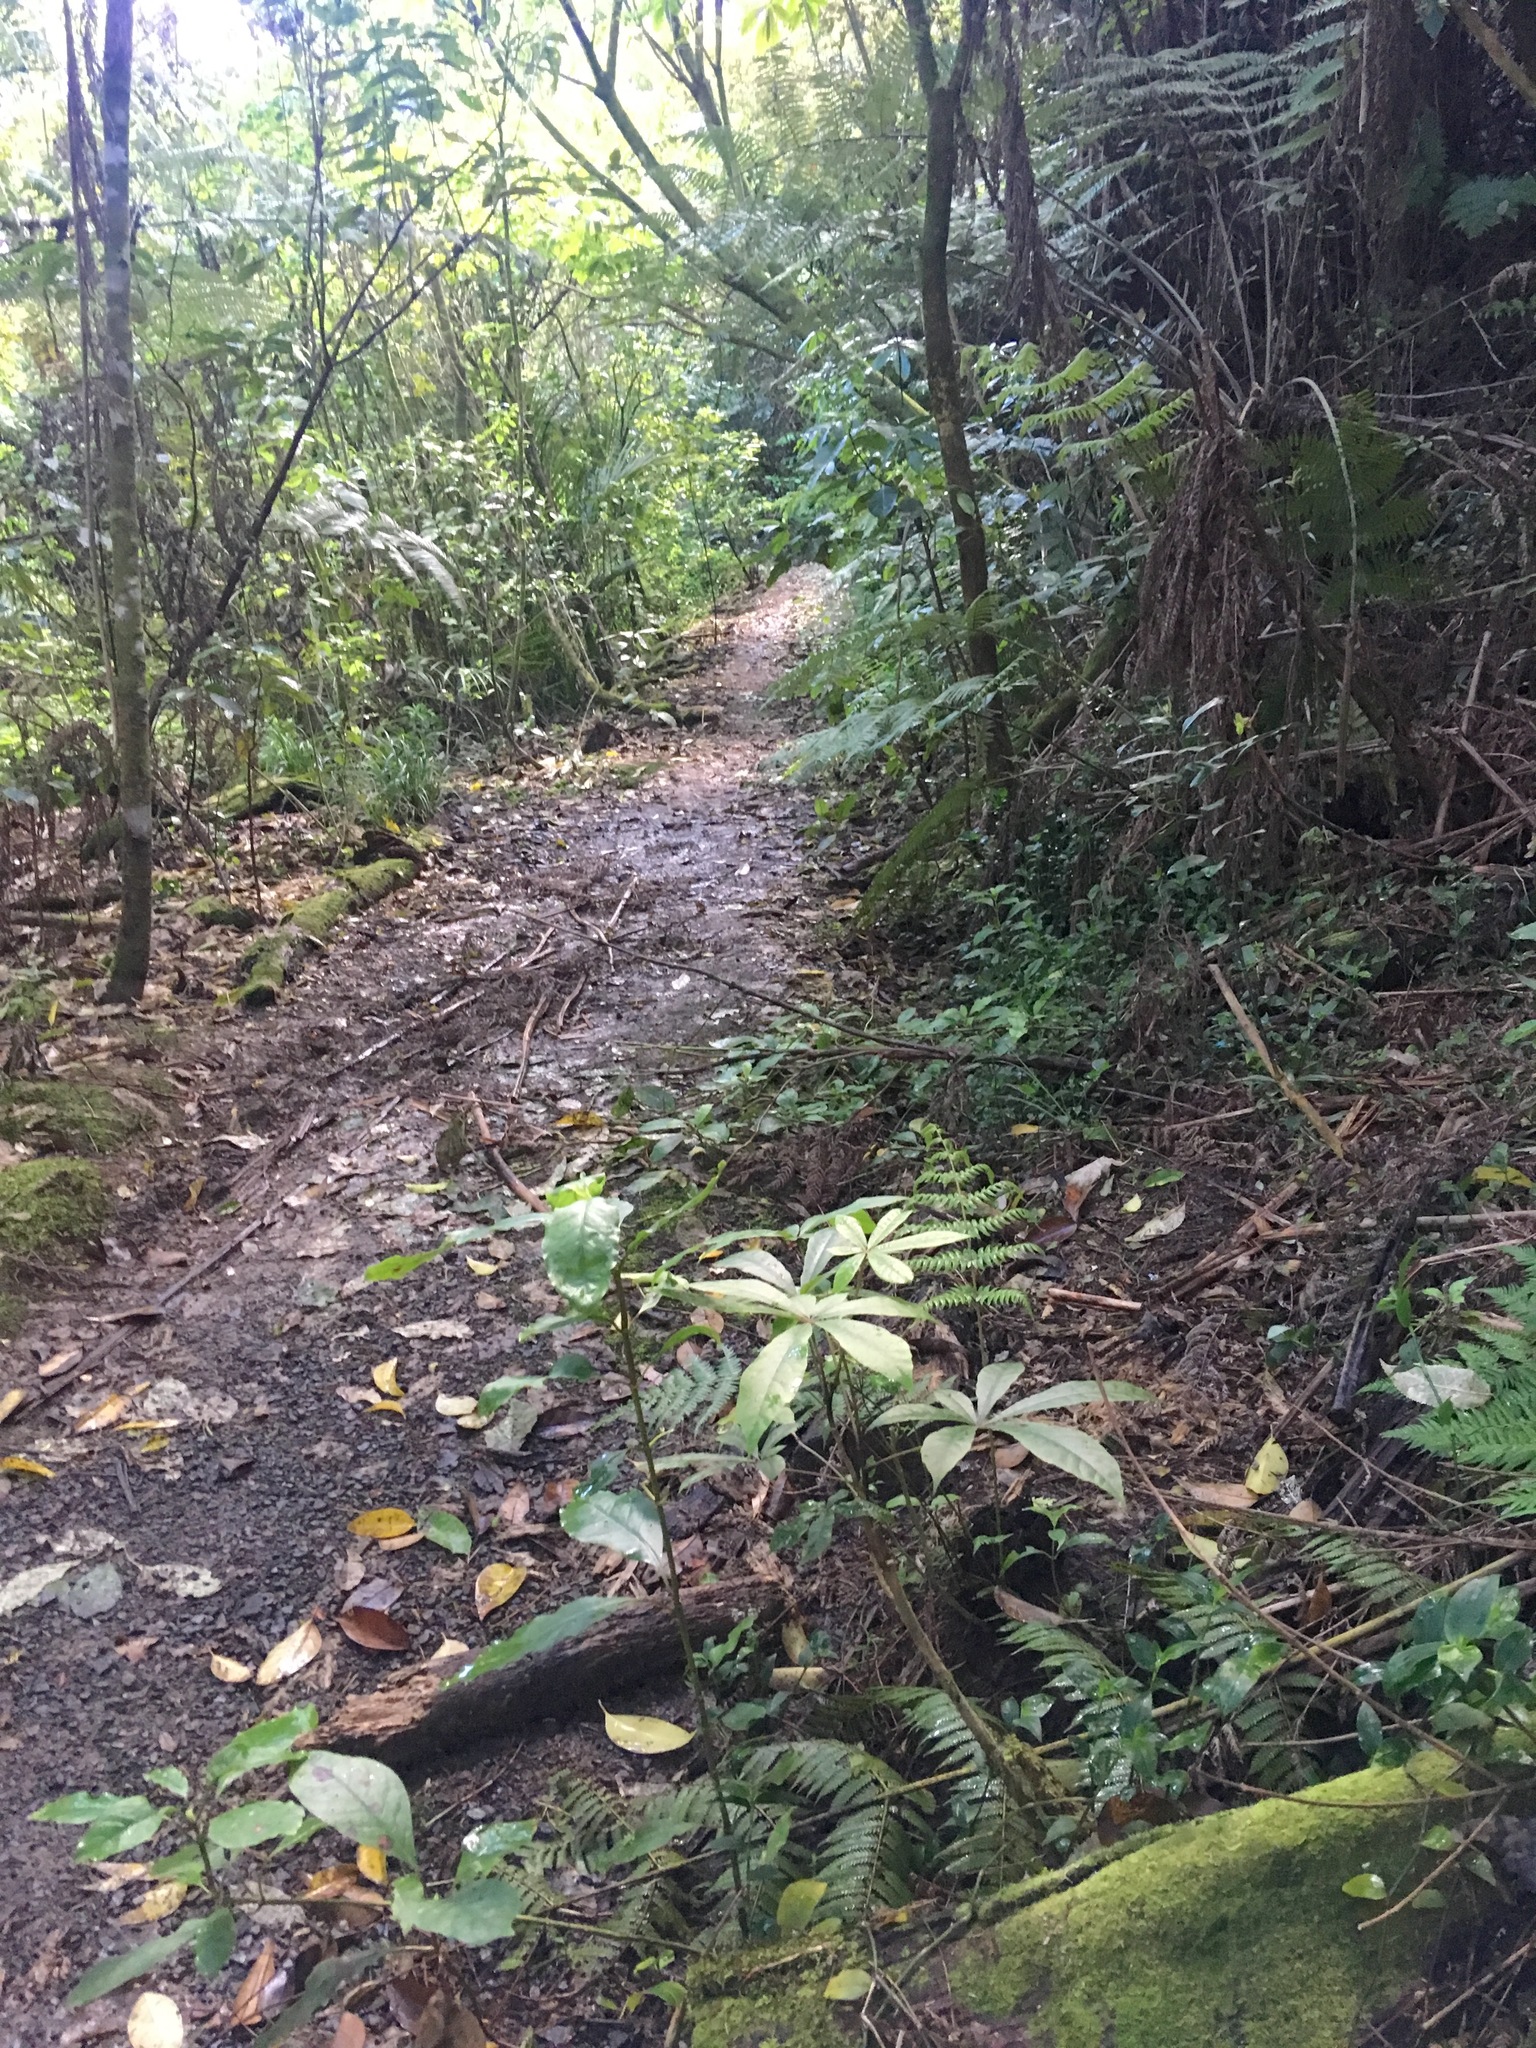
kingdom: Plantae
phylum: Tracheophyta
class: Magnoliopsida
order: Apiales
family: Araliaceae
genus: Schefflera
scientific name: Schefflera digitata
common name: Pate
